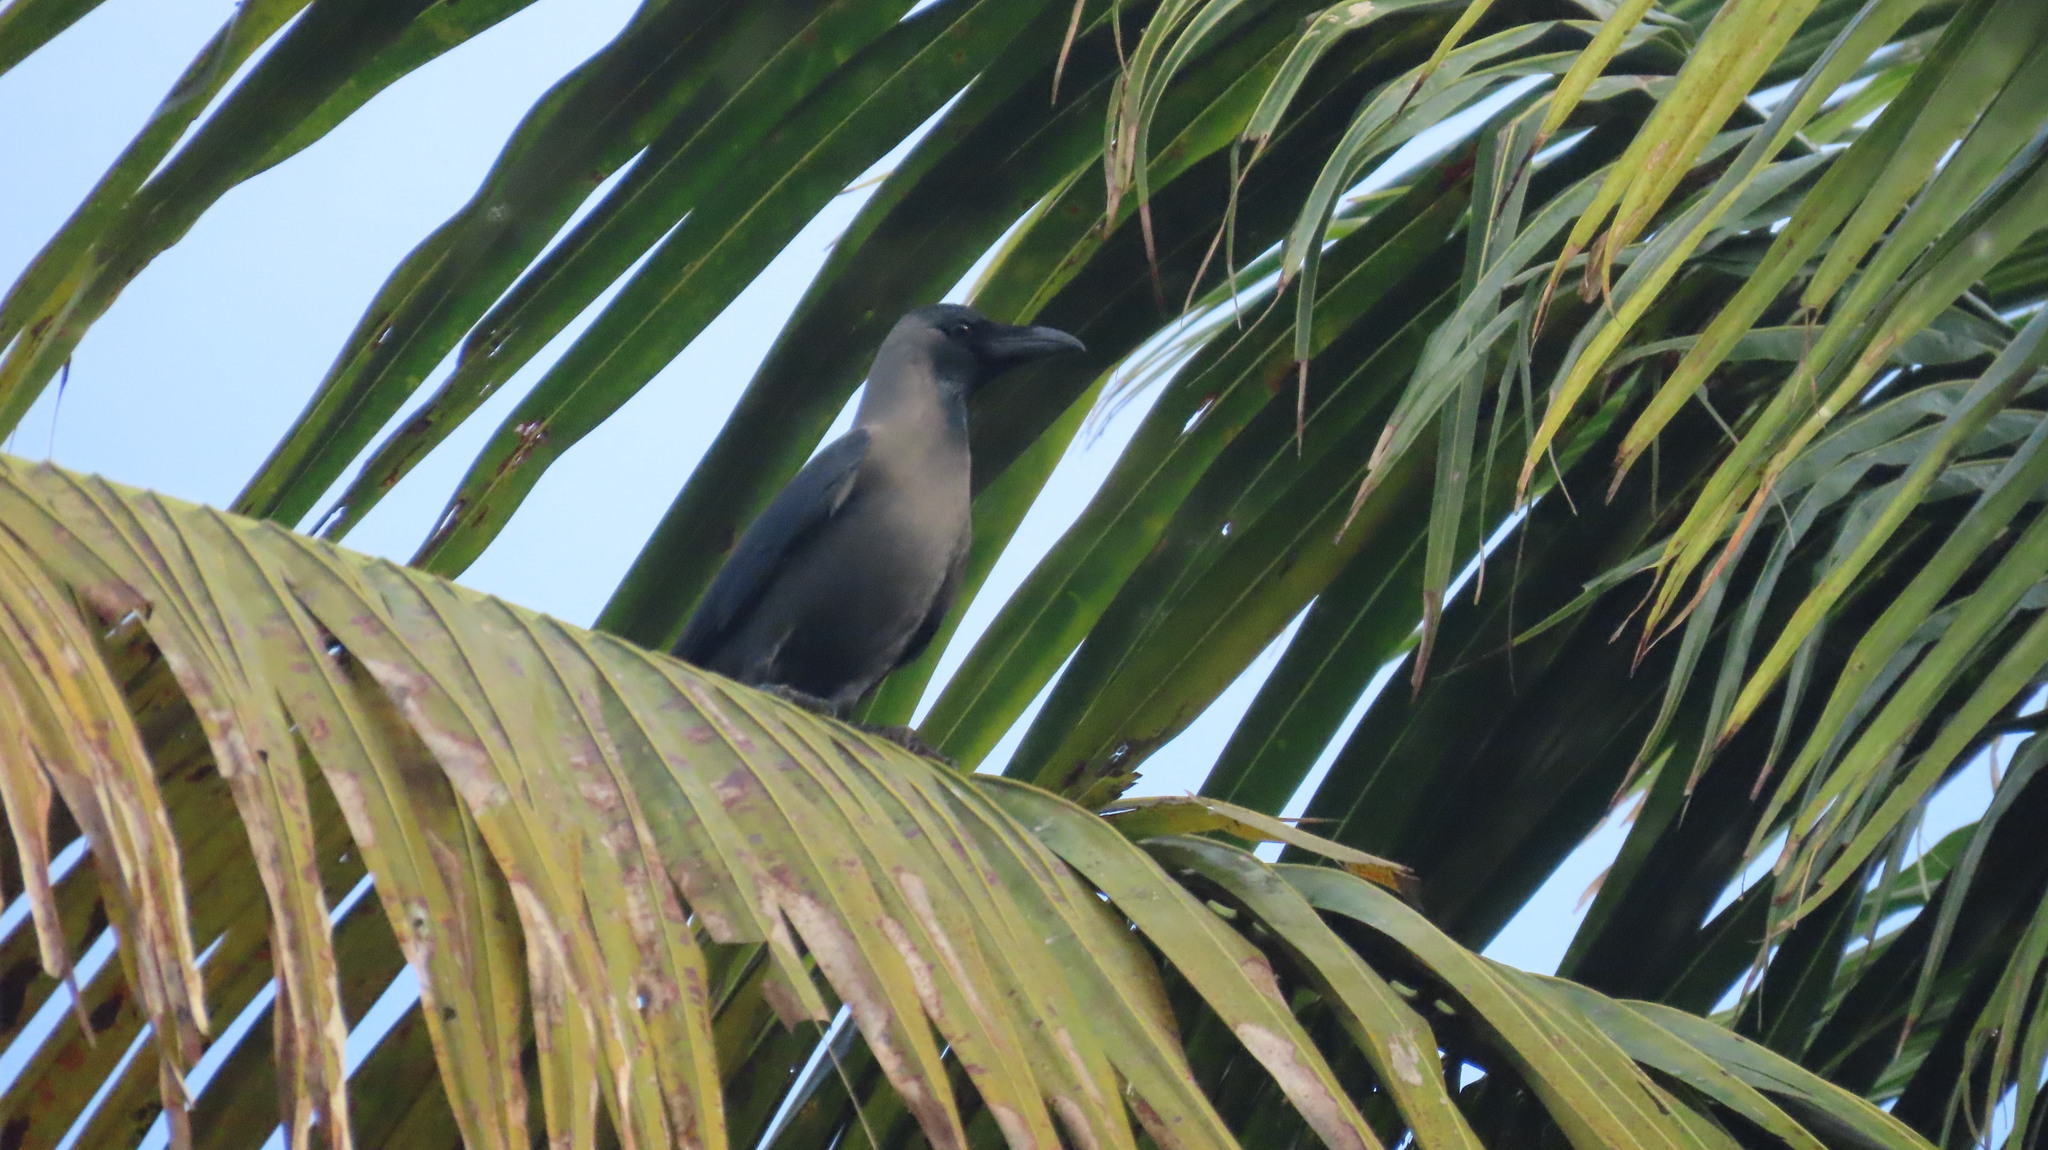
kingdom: Animalia
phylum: Chordata
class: Aves
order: Passeriformes
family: Corvidae
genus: Corvus
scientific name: Corvus splendens
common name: House crow
